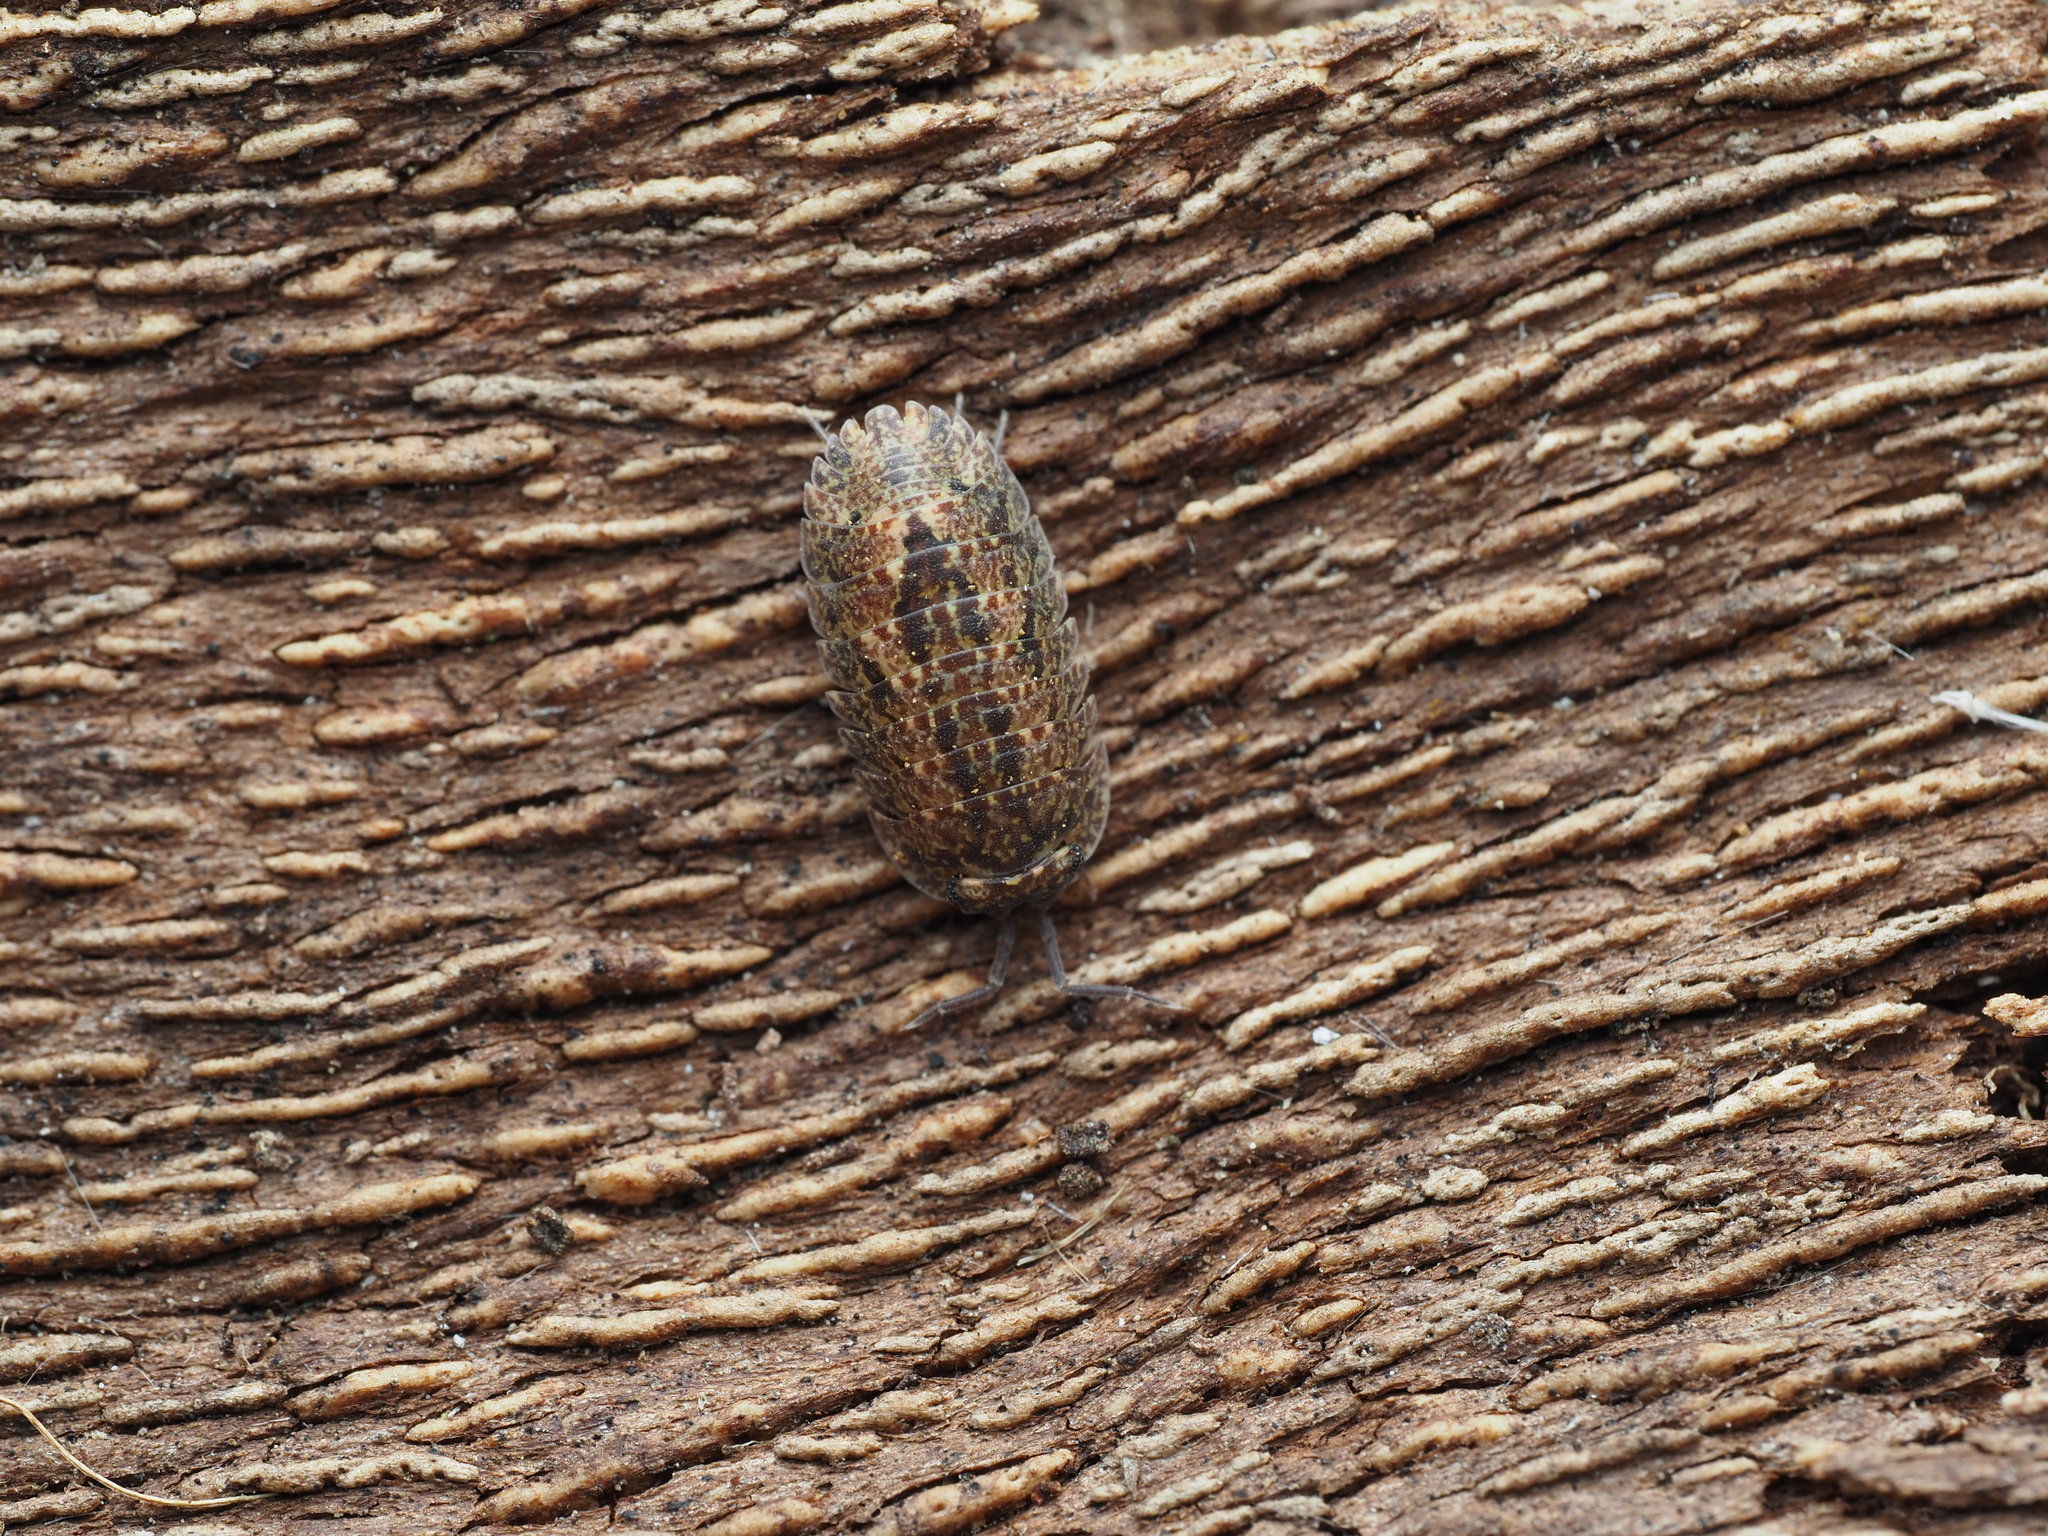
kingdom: Animalia
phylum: Arthropoda
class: Malacostraca
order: Isopoda
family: Armadillidae
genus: Cubaris
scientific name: Cubaris tarangensis
